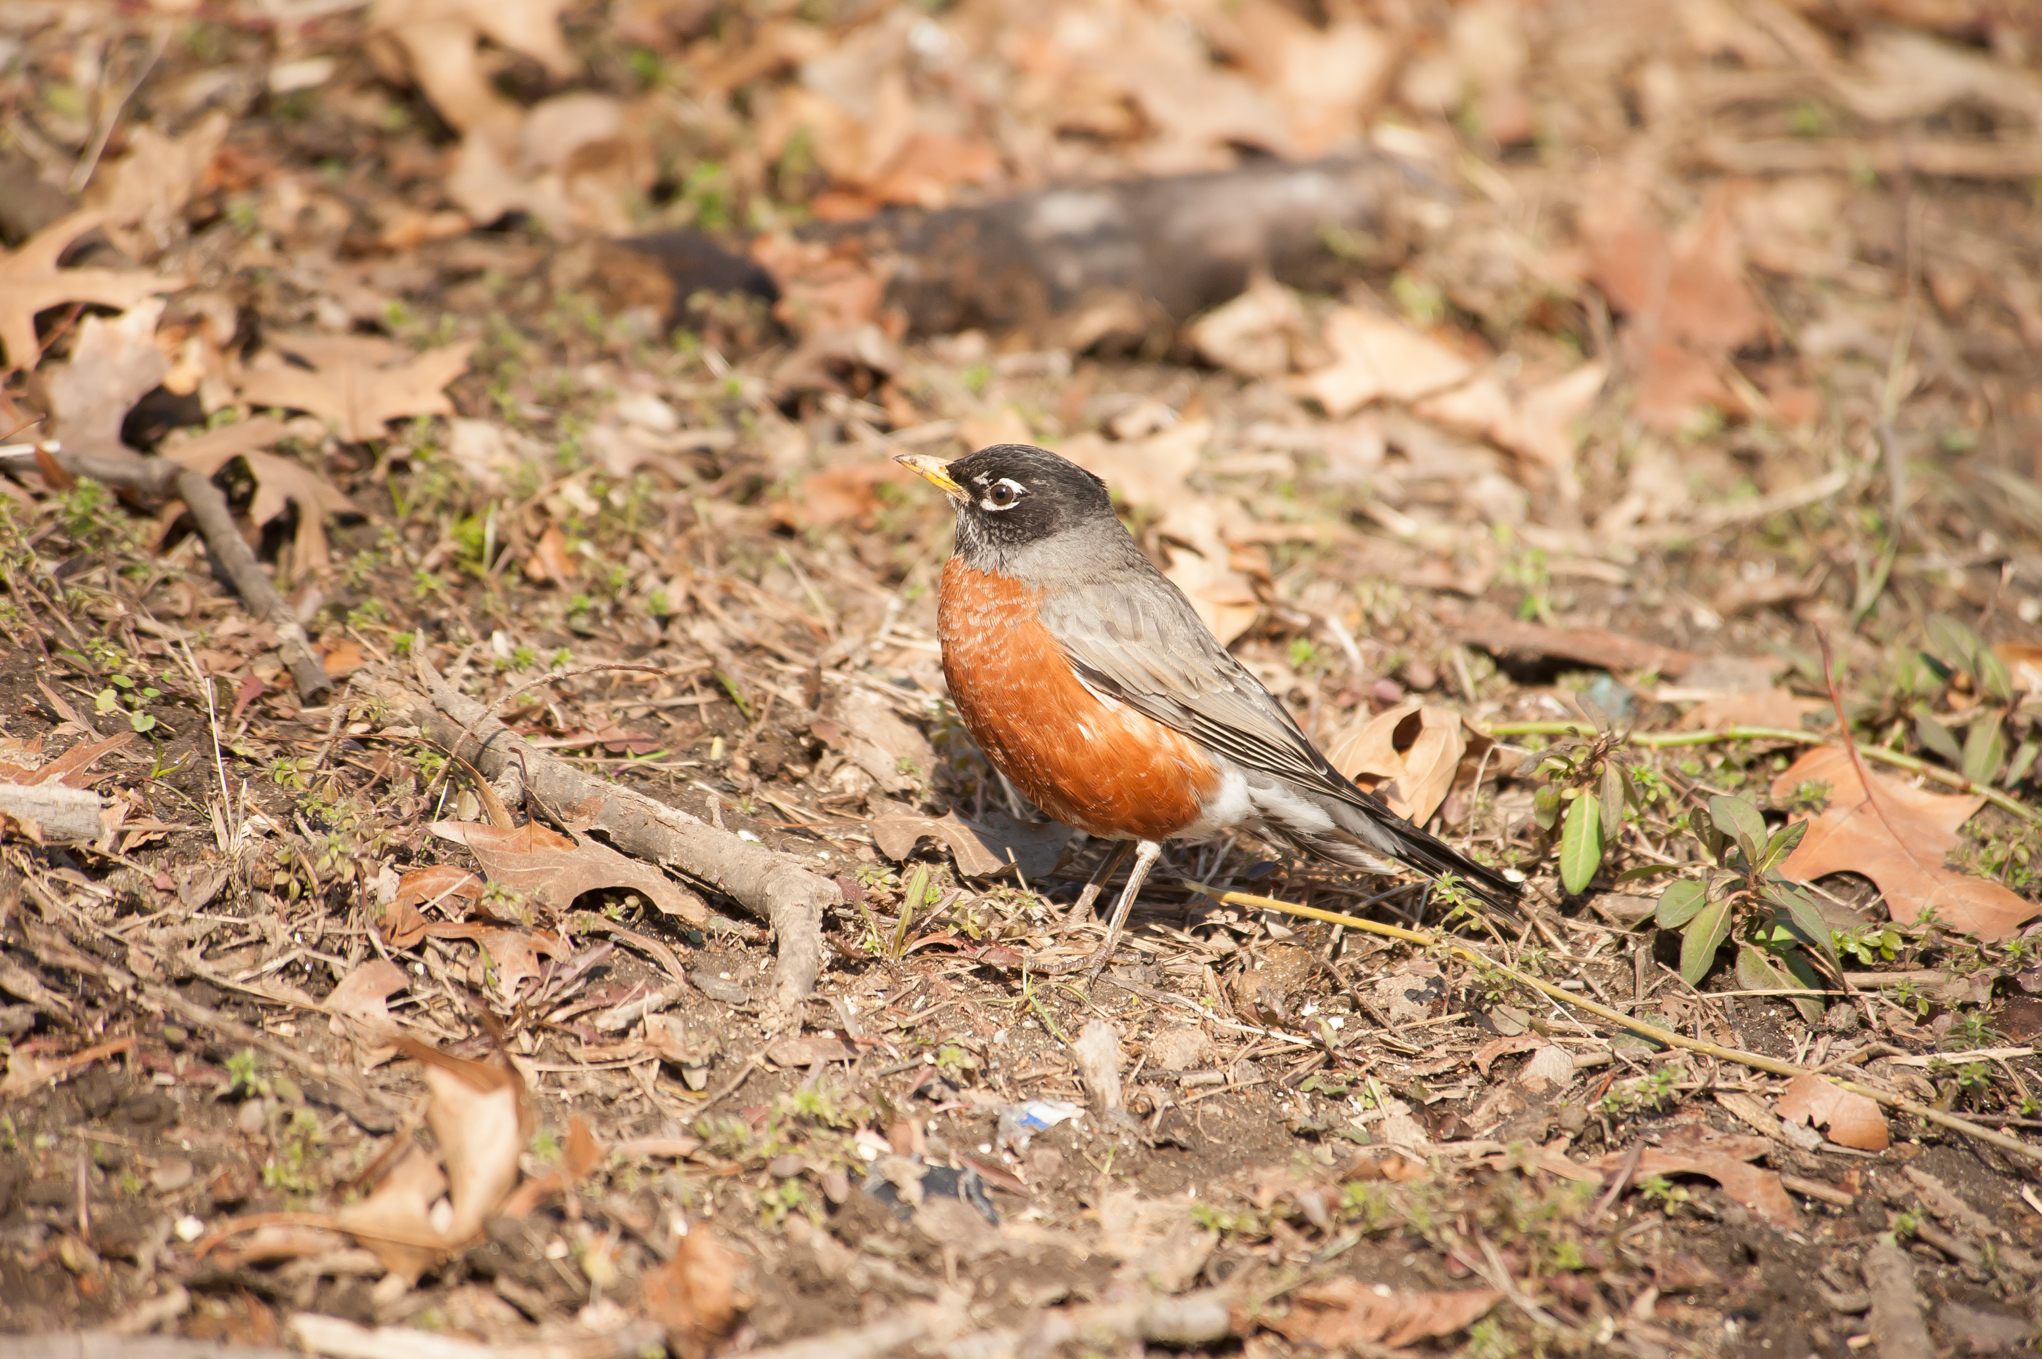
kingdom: Animalia
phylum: Chordata
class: Aves
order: Passeriformes
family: Turdidae
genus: Turdus
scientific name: Turdus migratorius
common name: American robin
